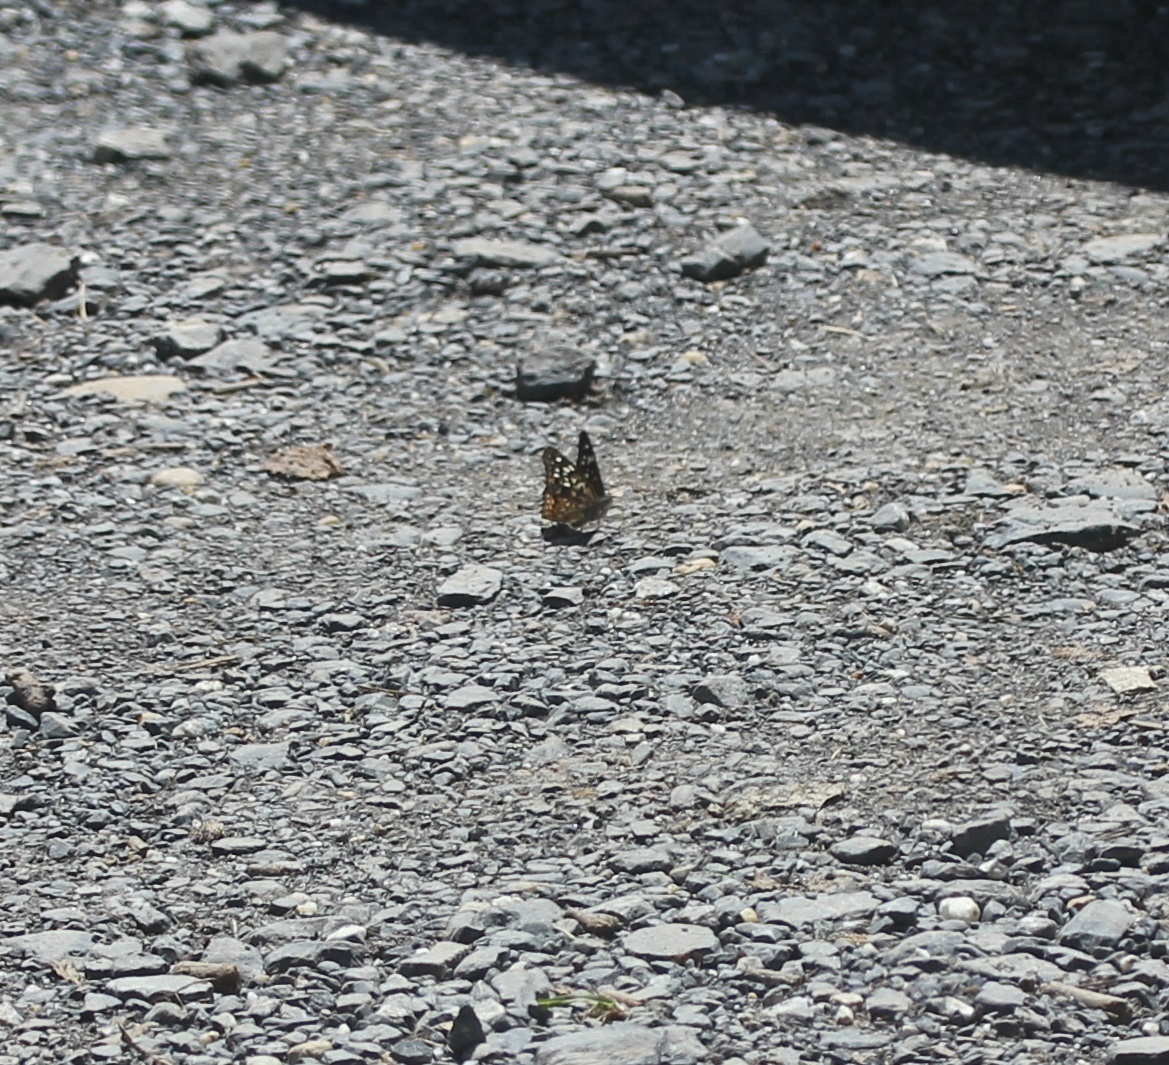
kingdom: Animalia
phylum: Arthropoda
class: Insecta
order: Lepidoptera
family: Nymphalidae
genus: Asterocampa
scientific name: Asterocampa celtis
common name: Hackberry emperor
